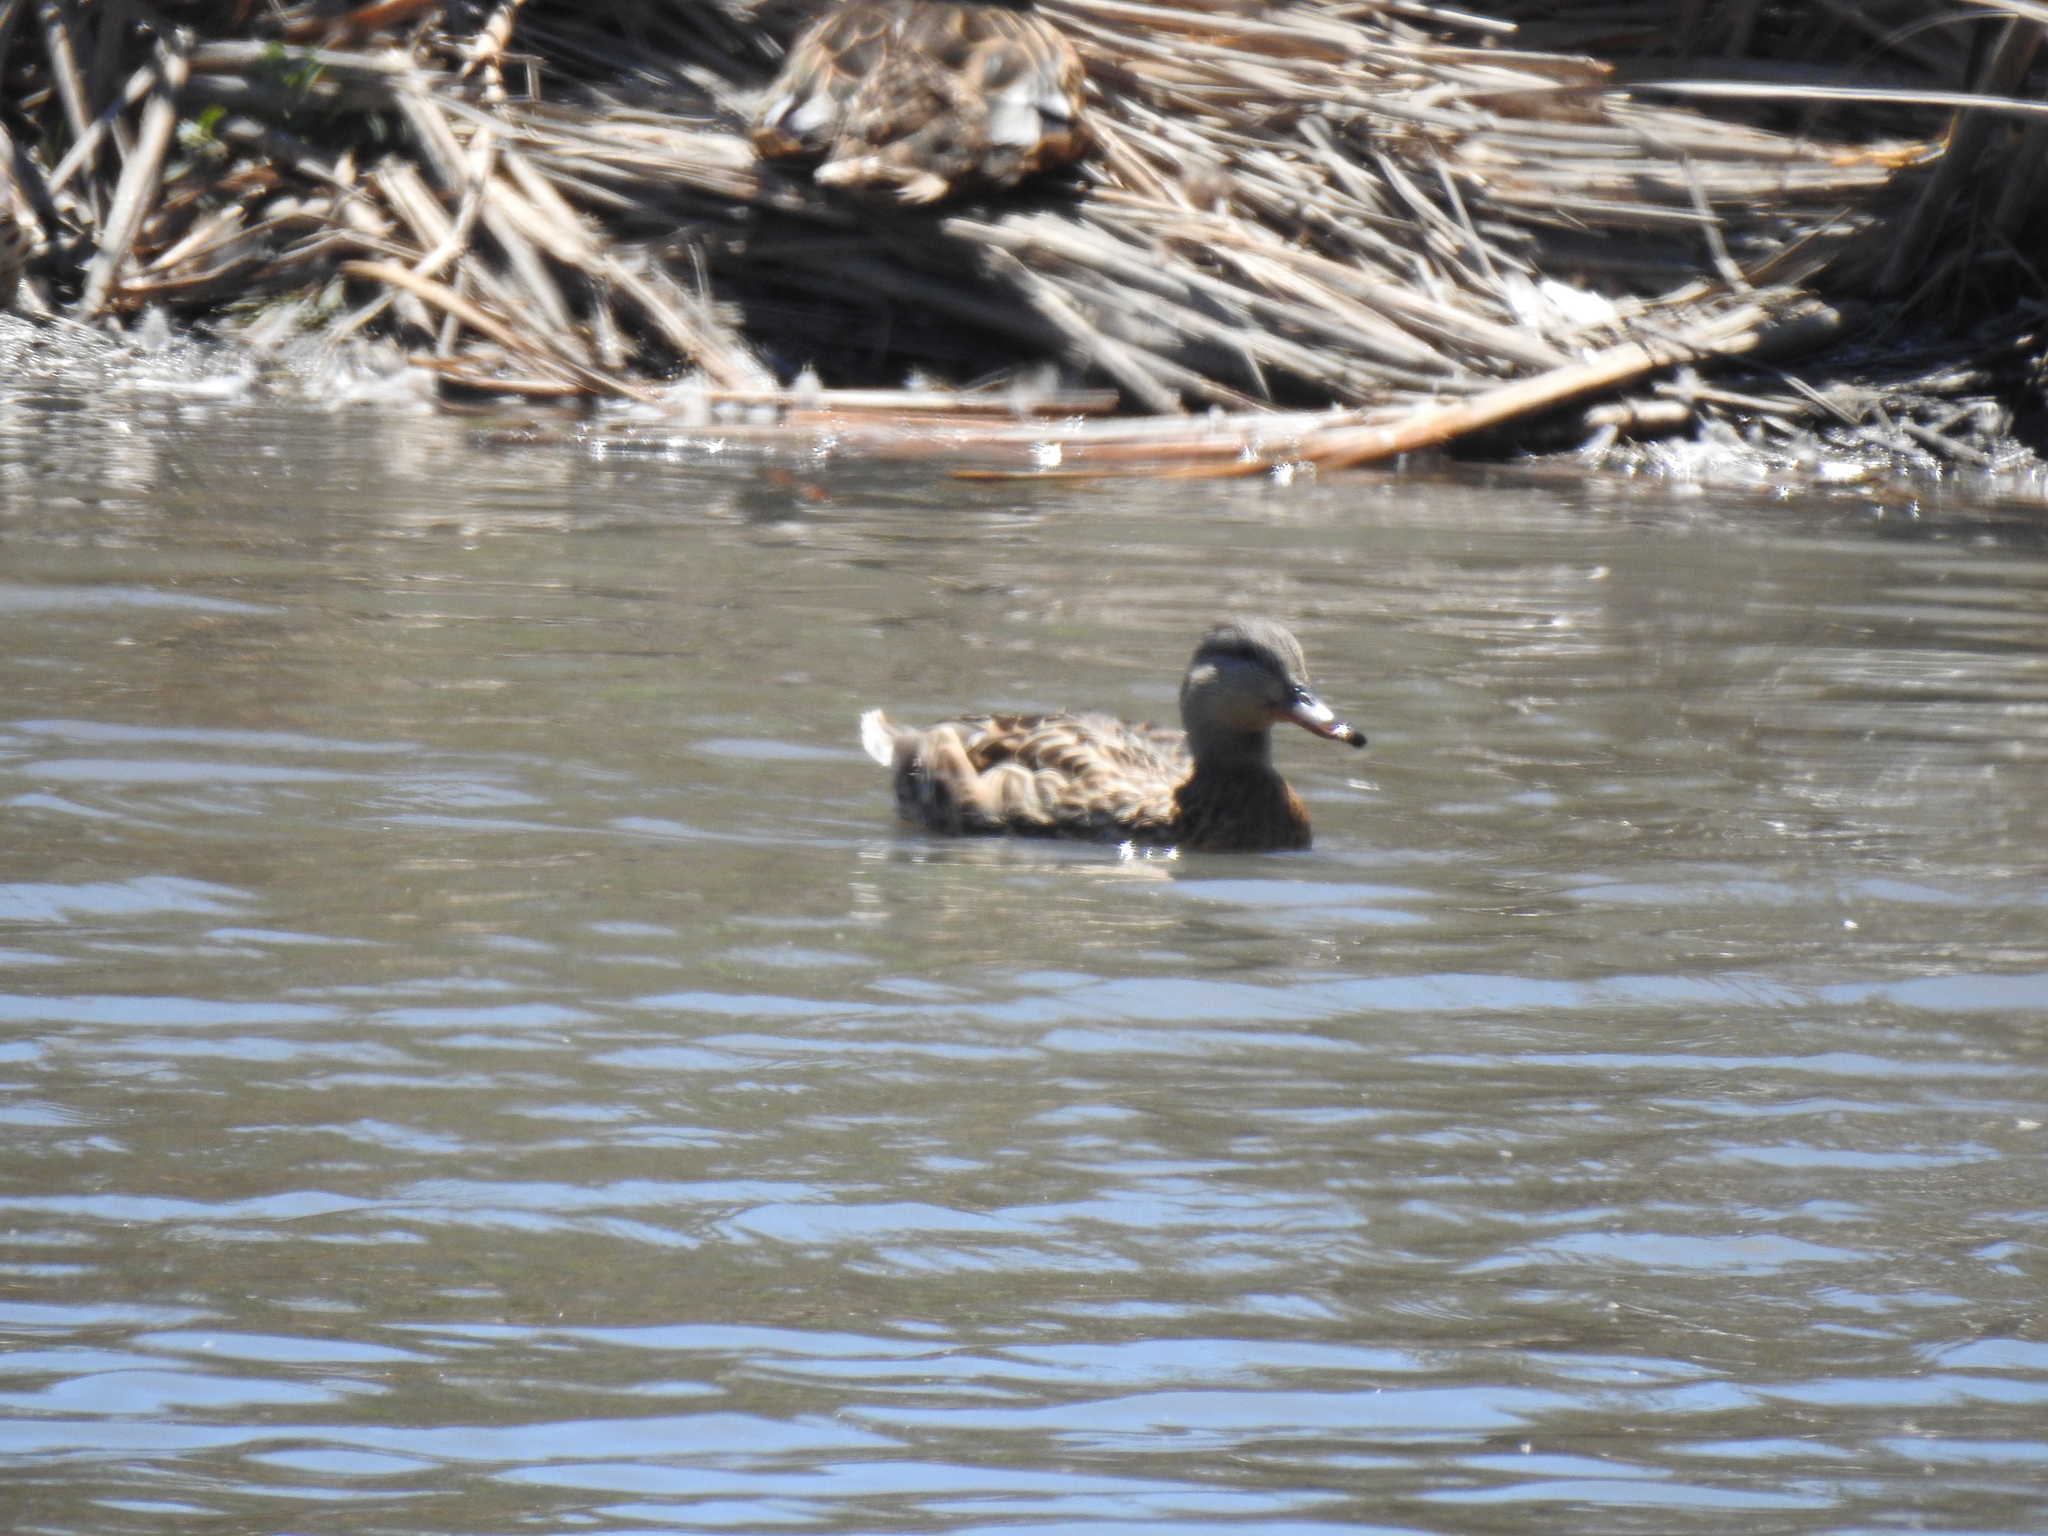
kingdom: Animalia
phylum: Chordata
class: Aves
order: Anseriformes
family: Anatidae
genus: Anas
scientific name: Anas platyrhynchos
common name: Mallard
